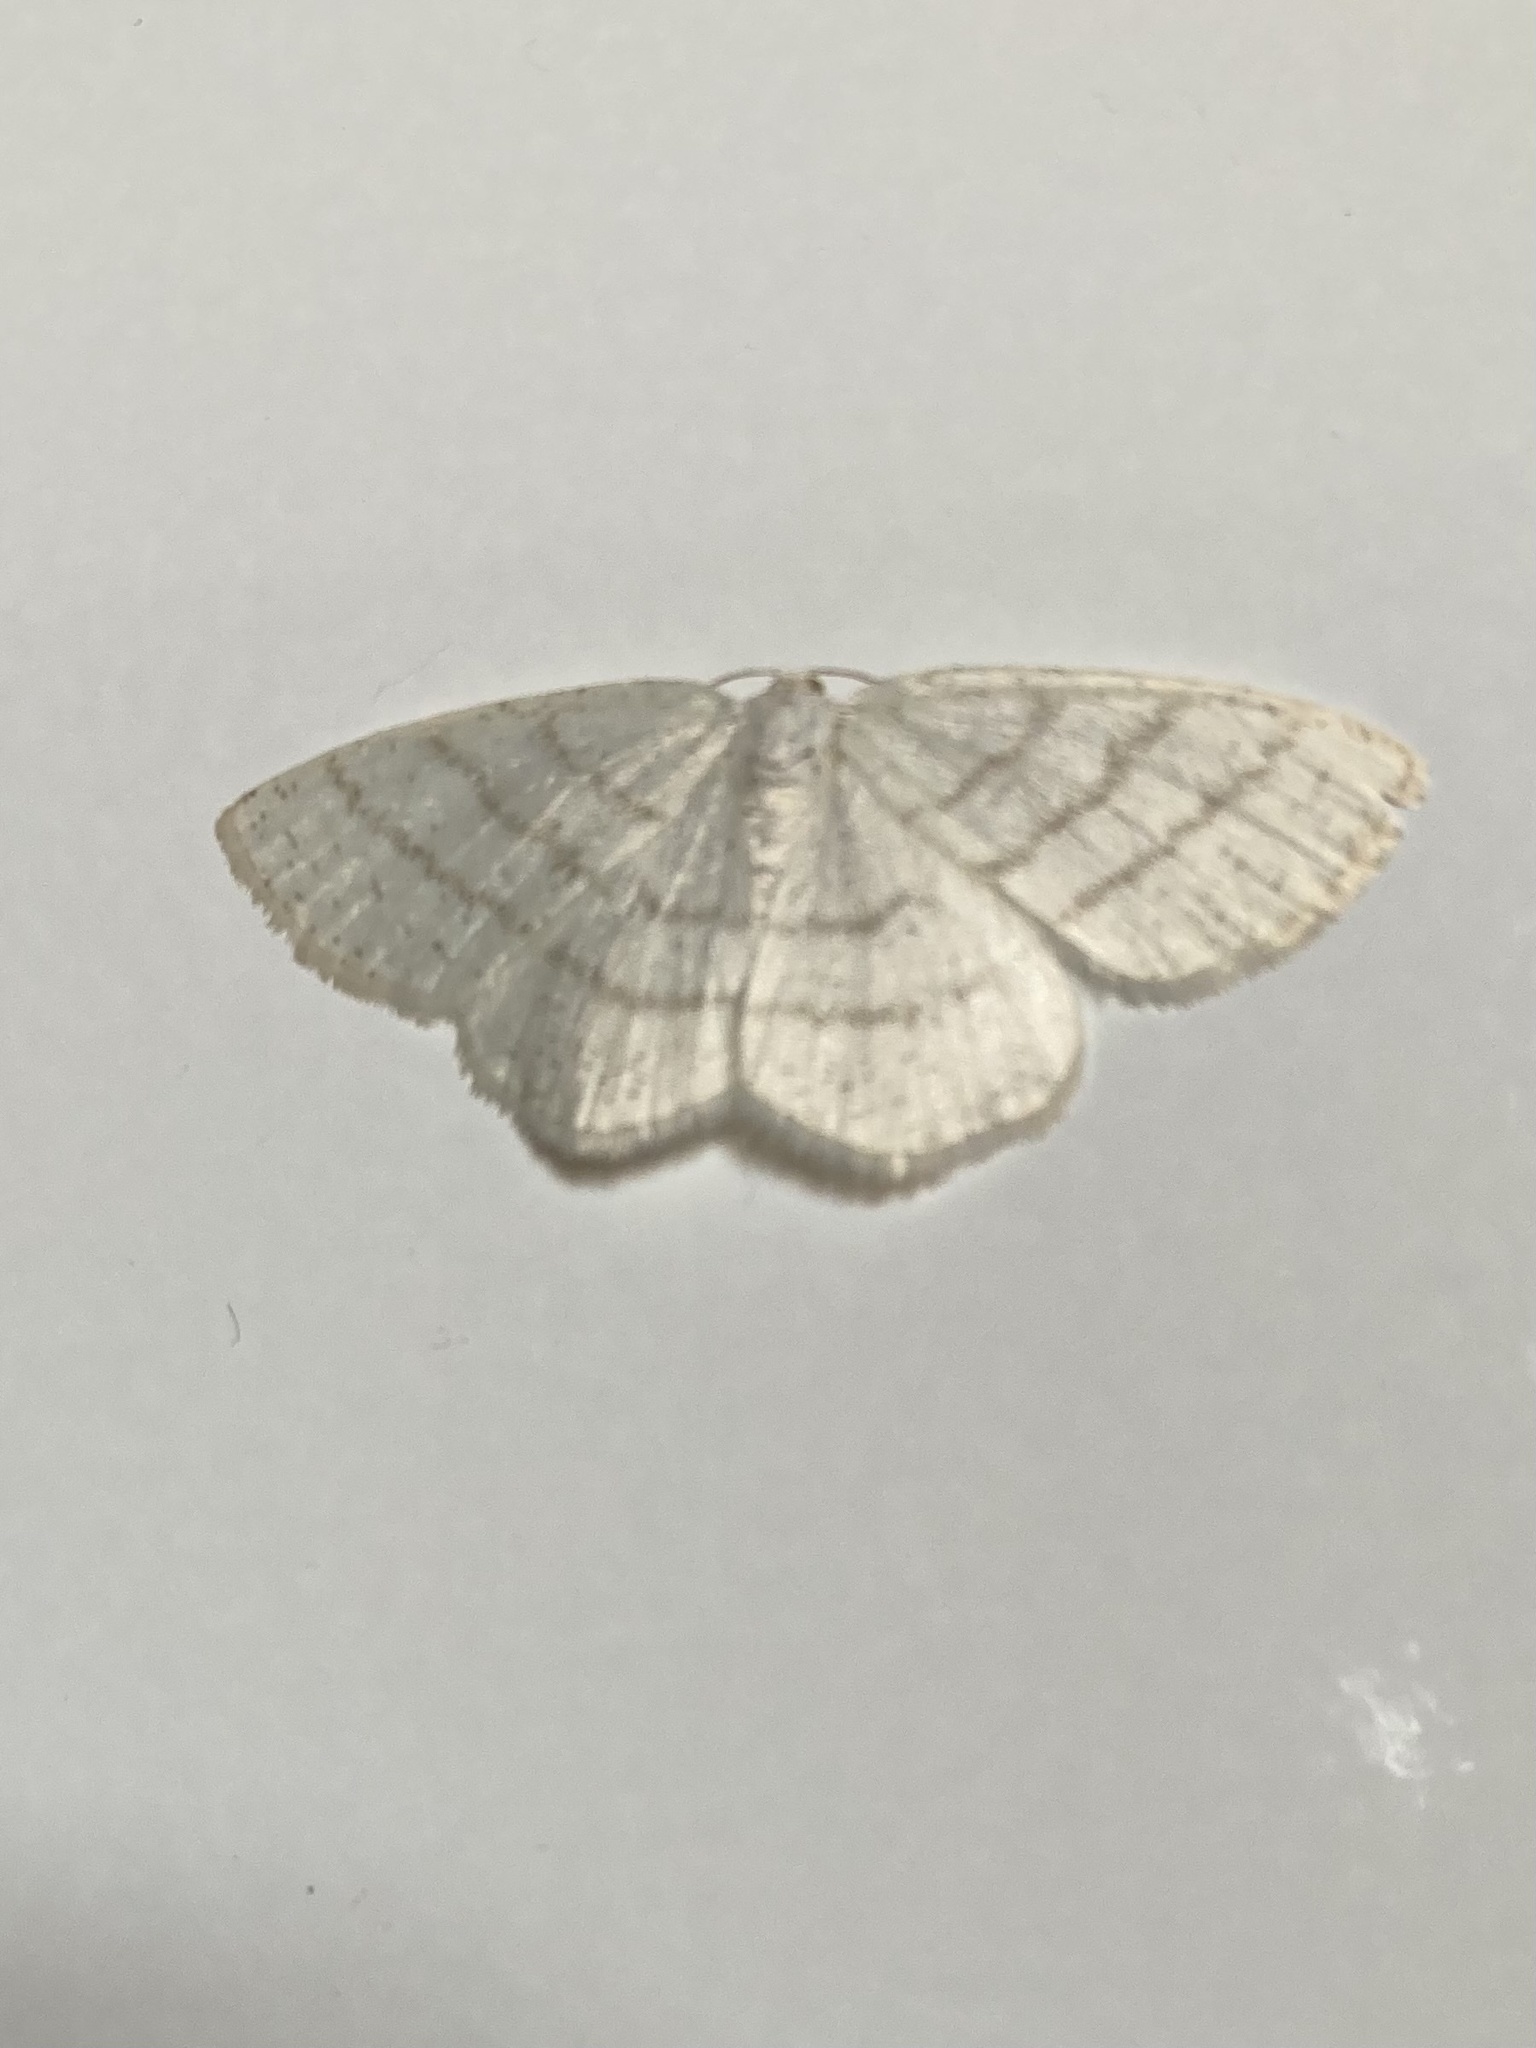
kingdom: Animalia
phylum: Arthropoda
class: Insecta
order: Lepidoptera
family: Geometridae
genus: Cabera
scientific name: Cabera pusaria
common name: Common white wave
